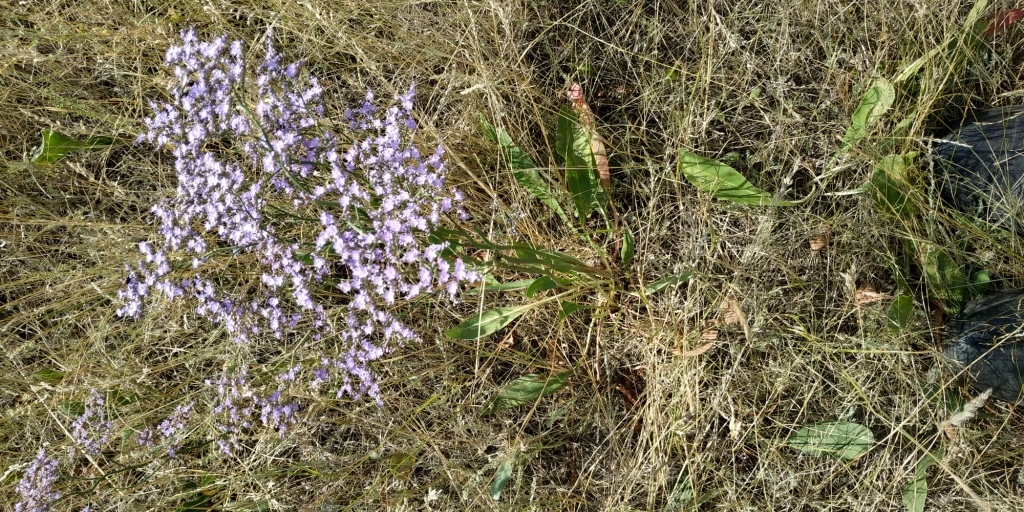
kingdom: Plantae
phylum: Tracheophyta
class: Magnoliopsida
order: Caryophyllales
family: Plumbaginaceae
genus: Limonium
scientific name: Limonium gmelini
